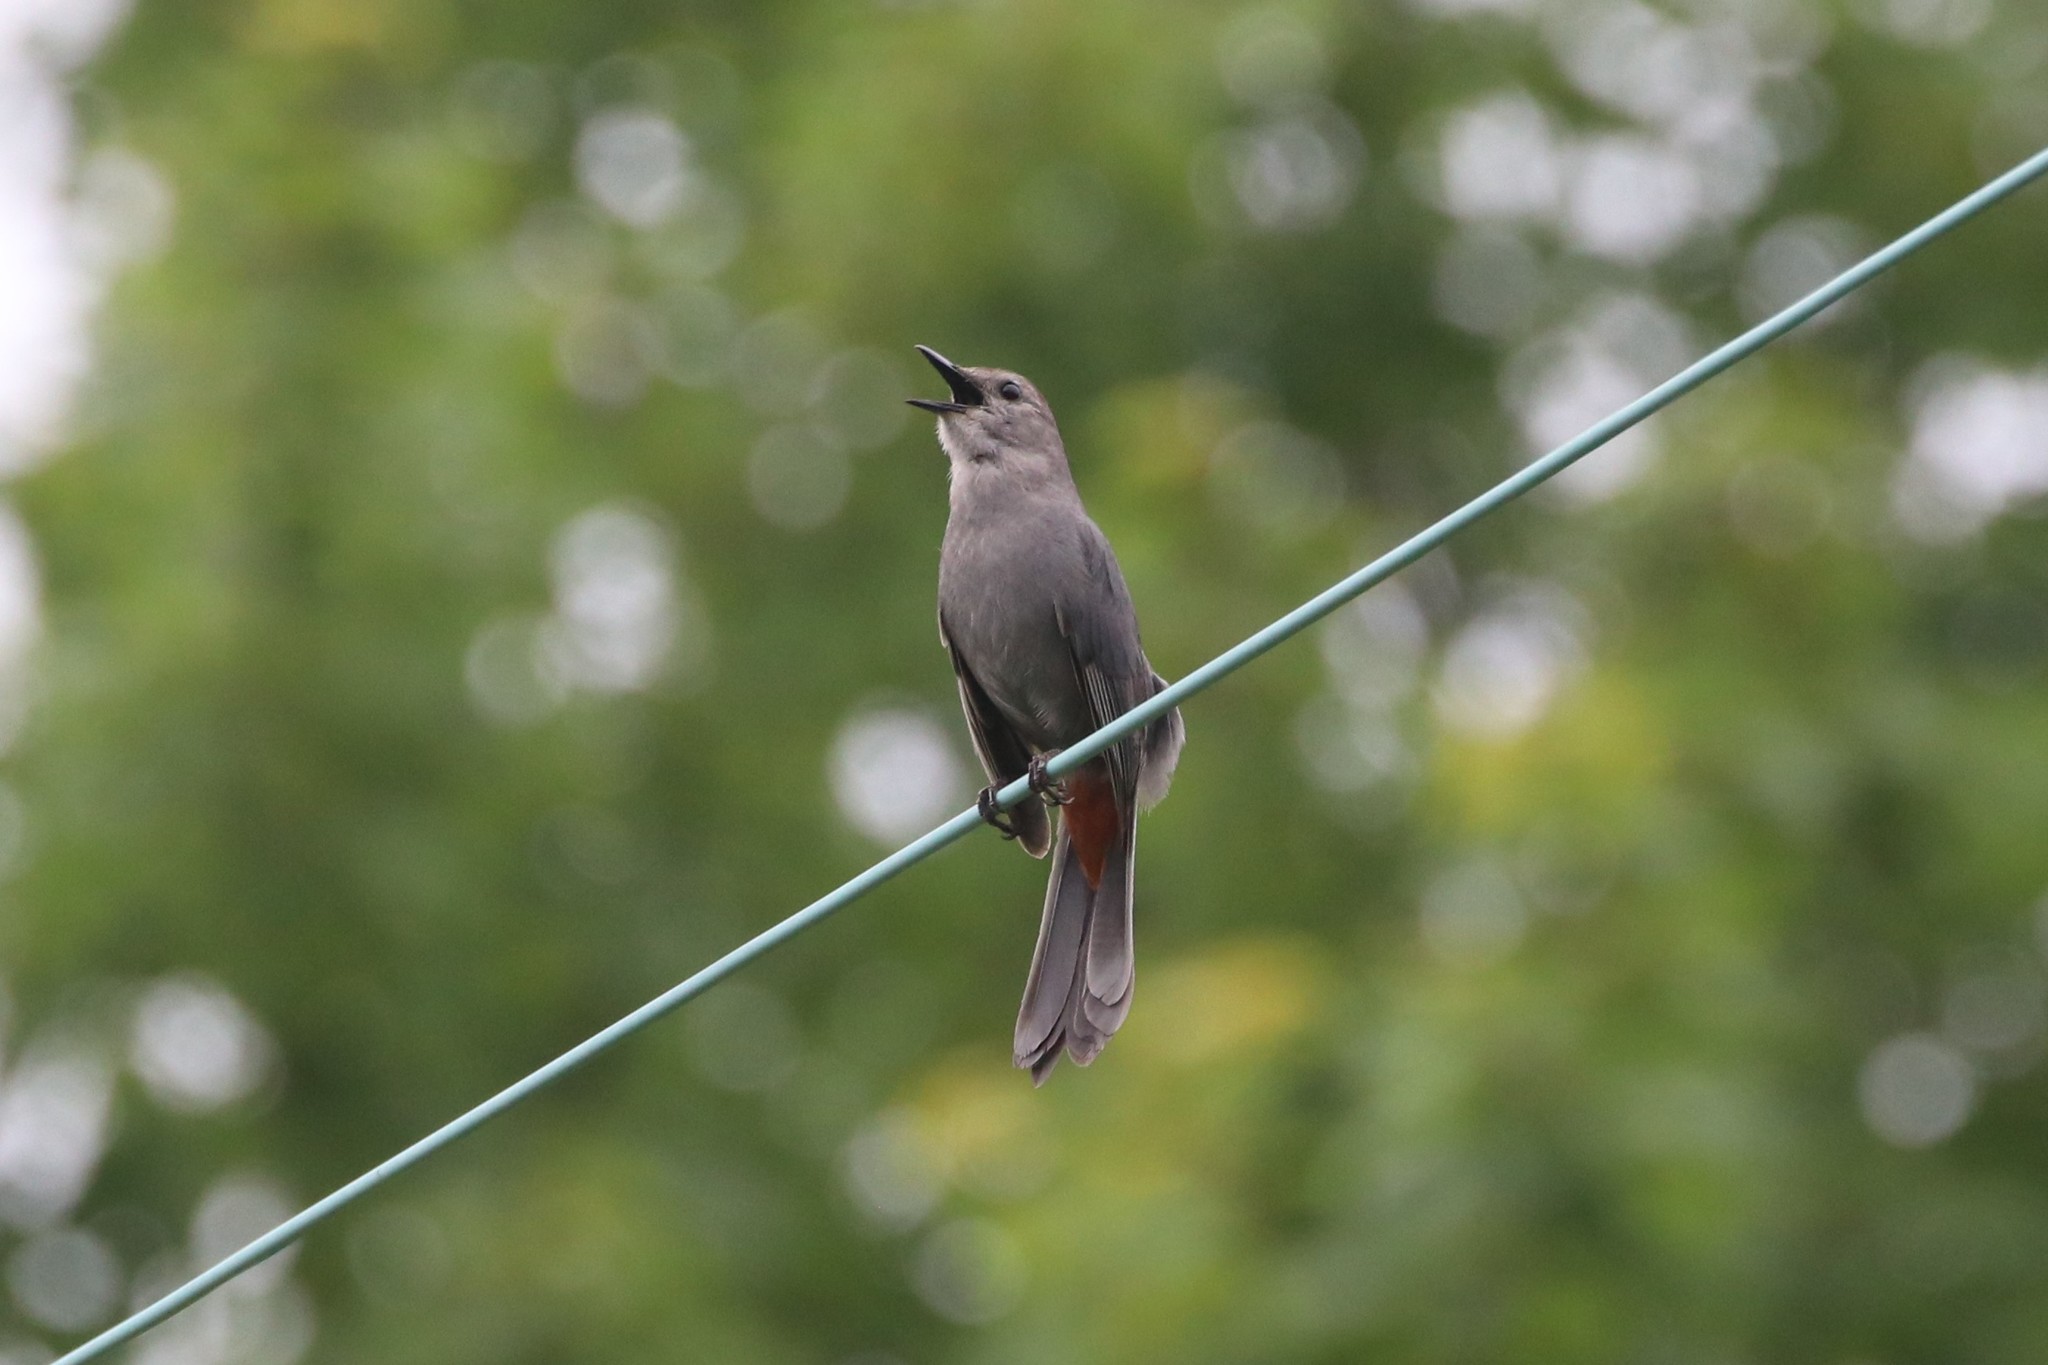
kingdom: Animalia
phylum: Chordata
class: Aves
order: Passeriformes
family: Mimidae
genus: Dumetella
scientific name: Dumetella carolinensis
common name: Gray catbird
